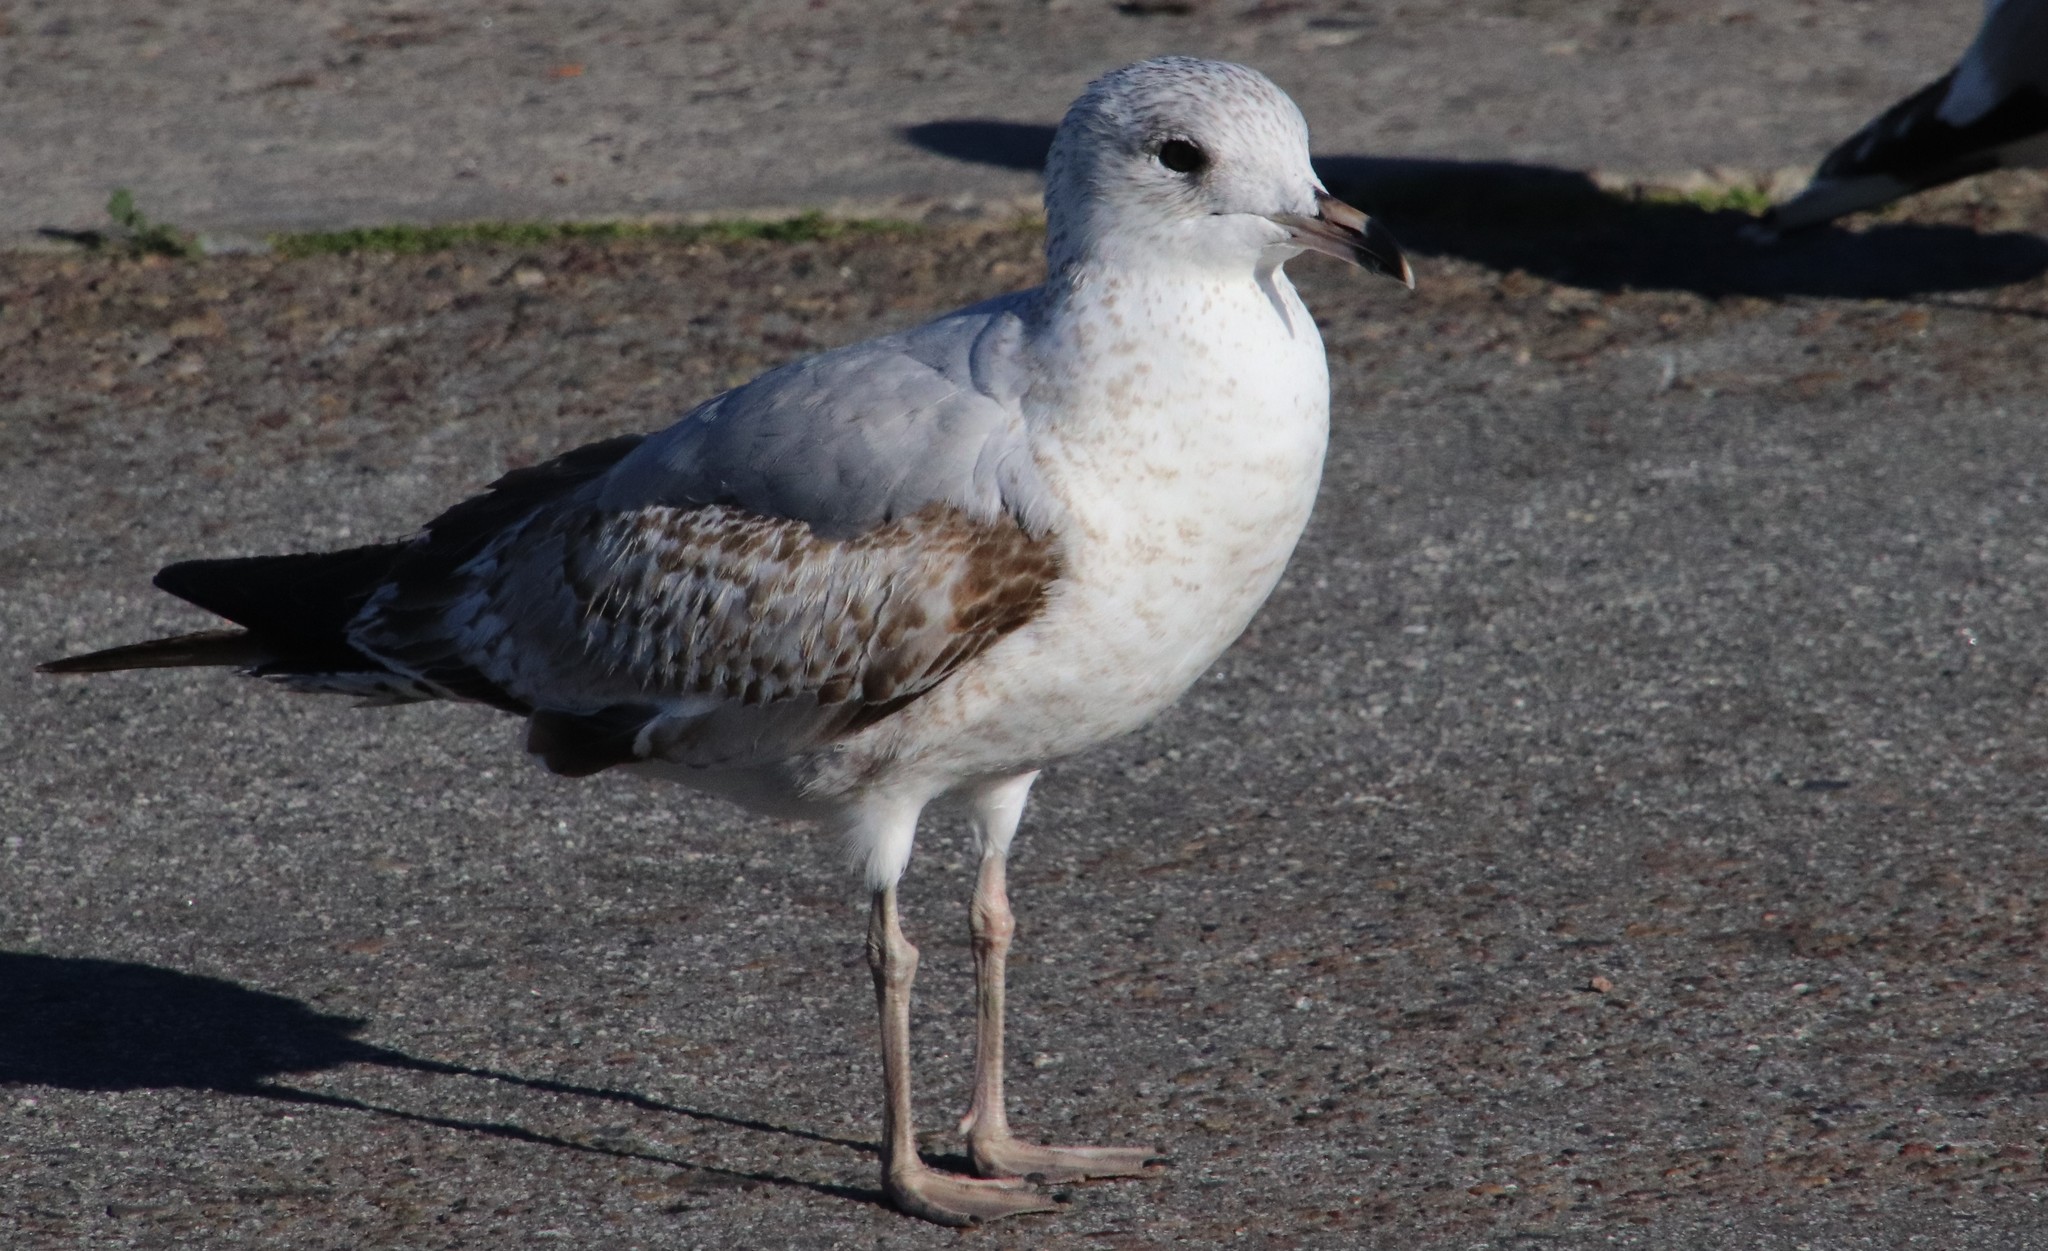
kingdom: Animalia
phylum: Chordata
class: Aves
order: Charadriiformes
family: Laridae
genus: Larus
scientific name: Larus delawarensis
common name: Ring-billed gull
